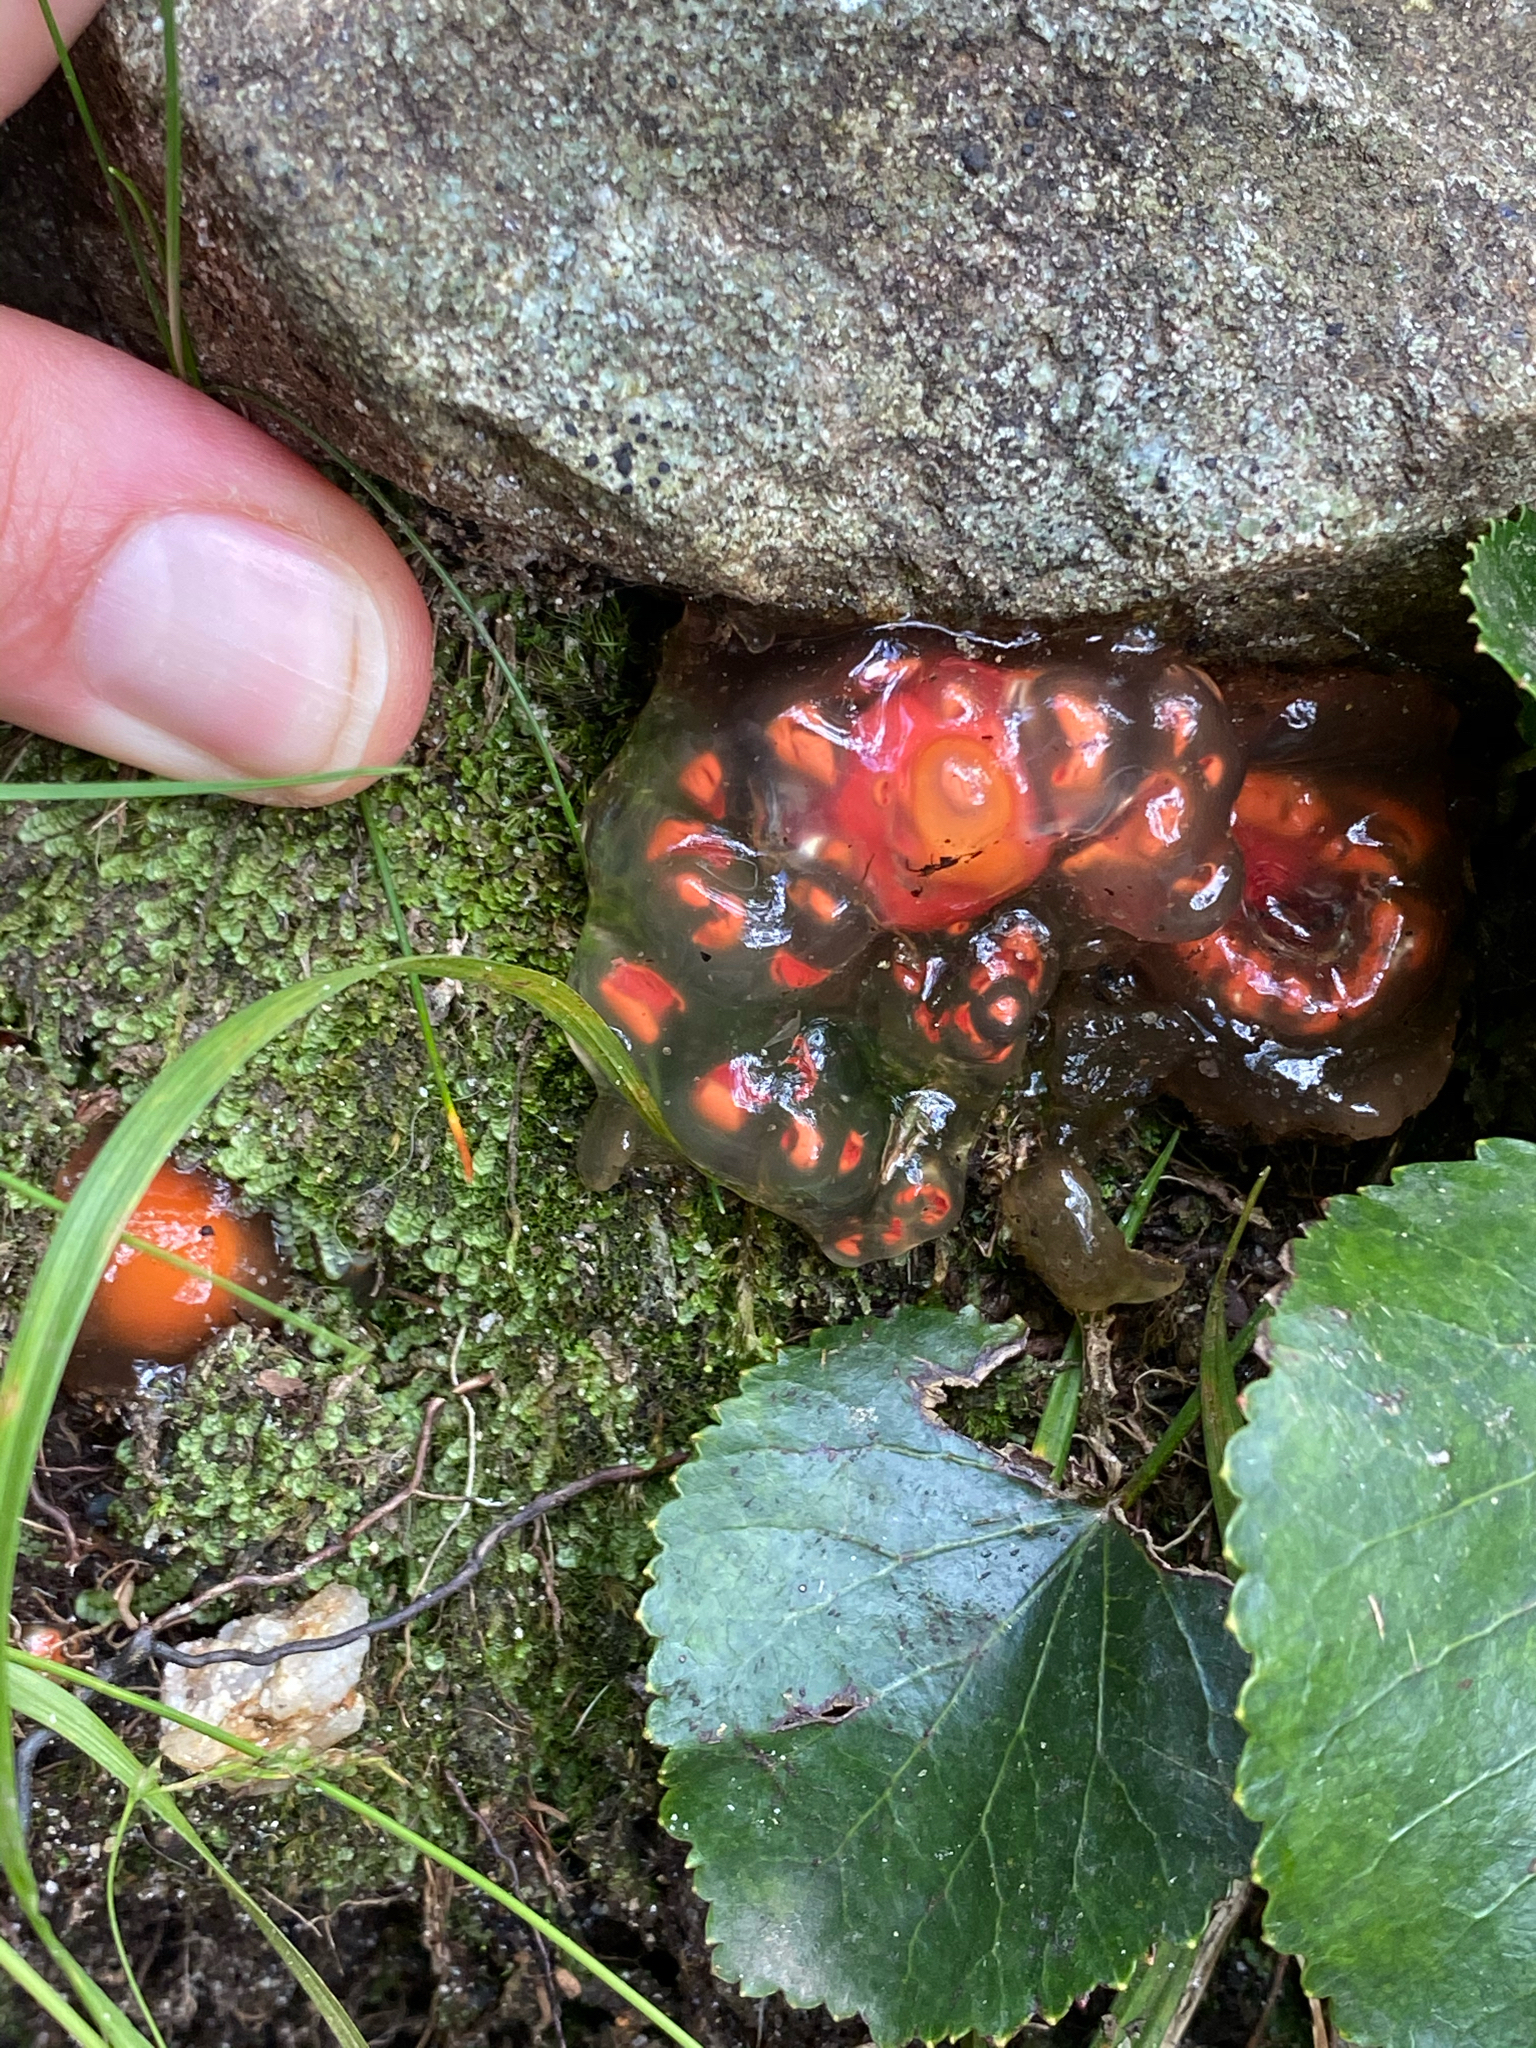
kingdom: Fungi
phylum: Basidiomycota
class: Agaricomycetes
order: Boletales
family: Calostomataceae
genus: Calostoma
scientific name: Calostoma cinnabarinum
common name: Stalked puffball-in-aspic
